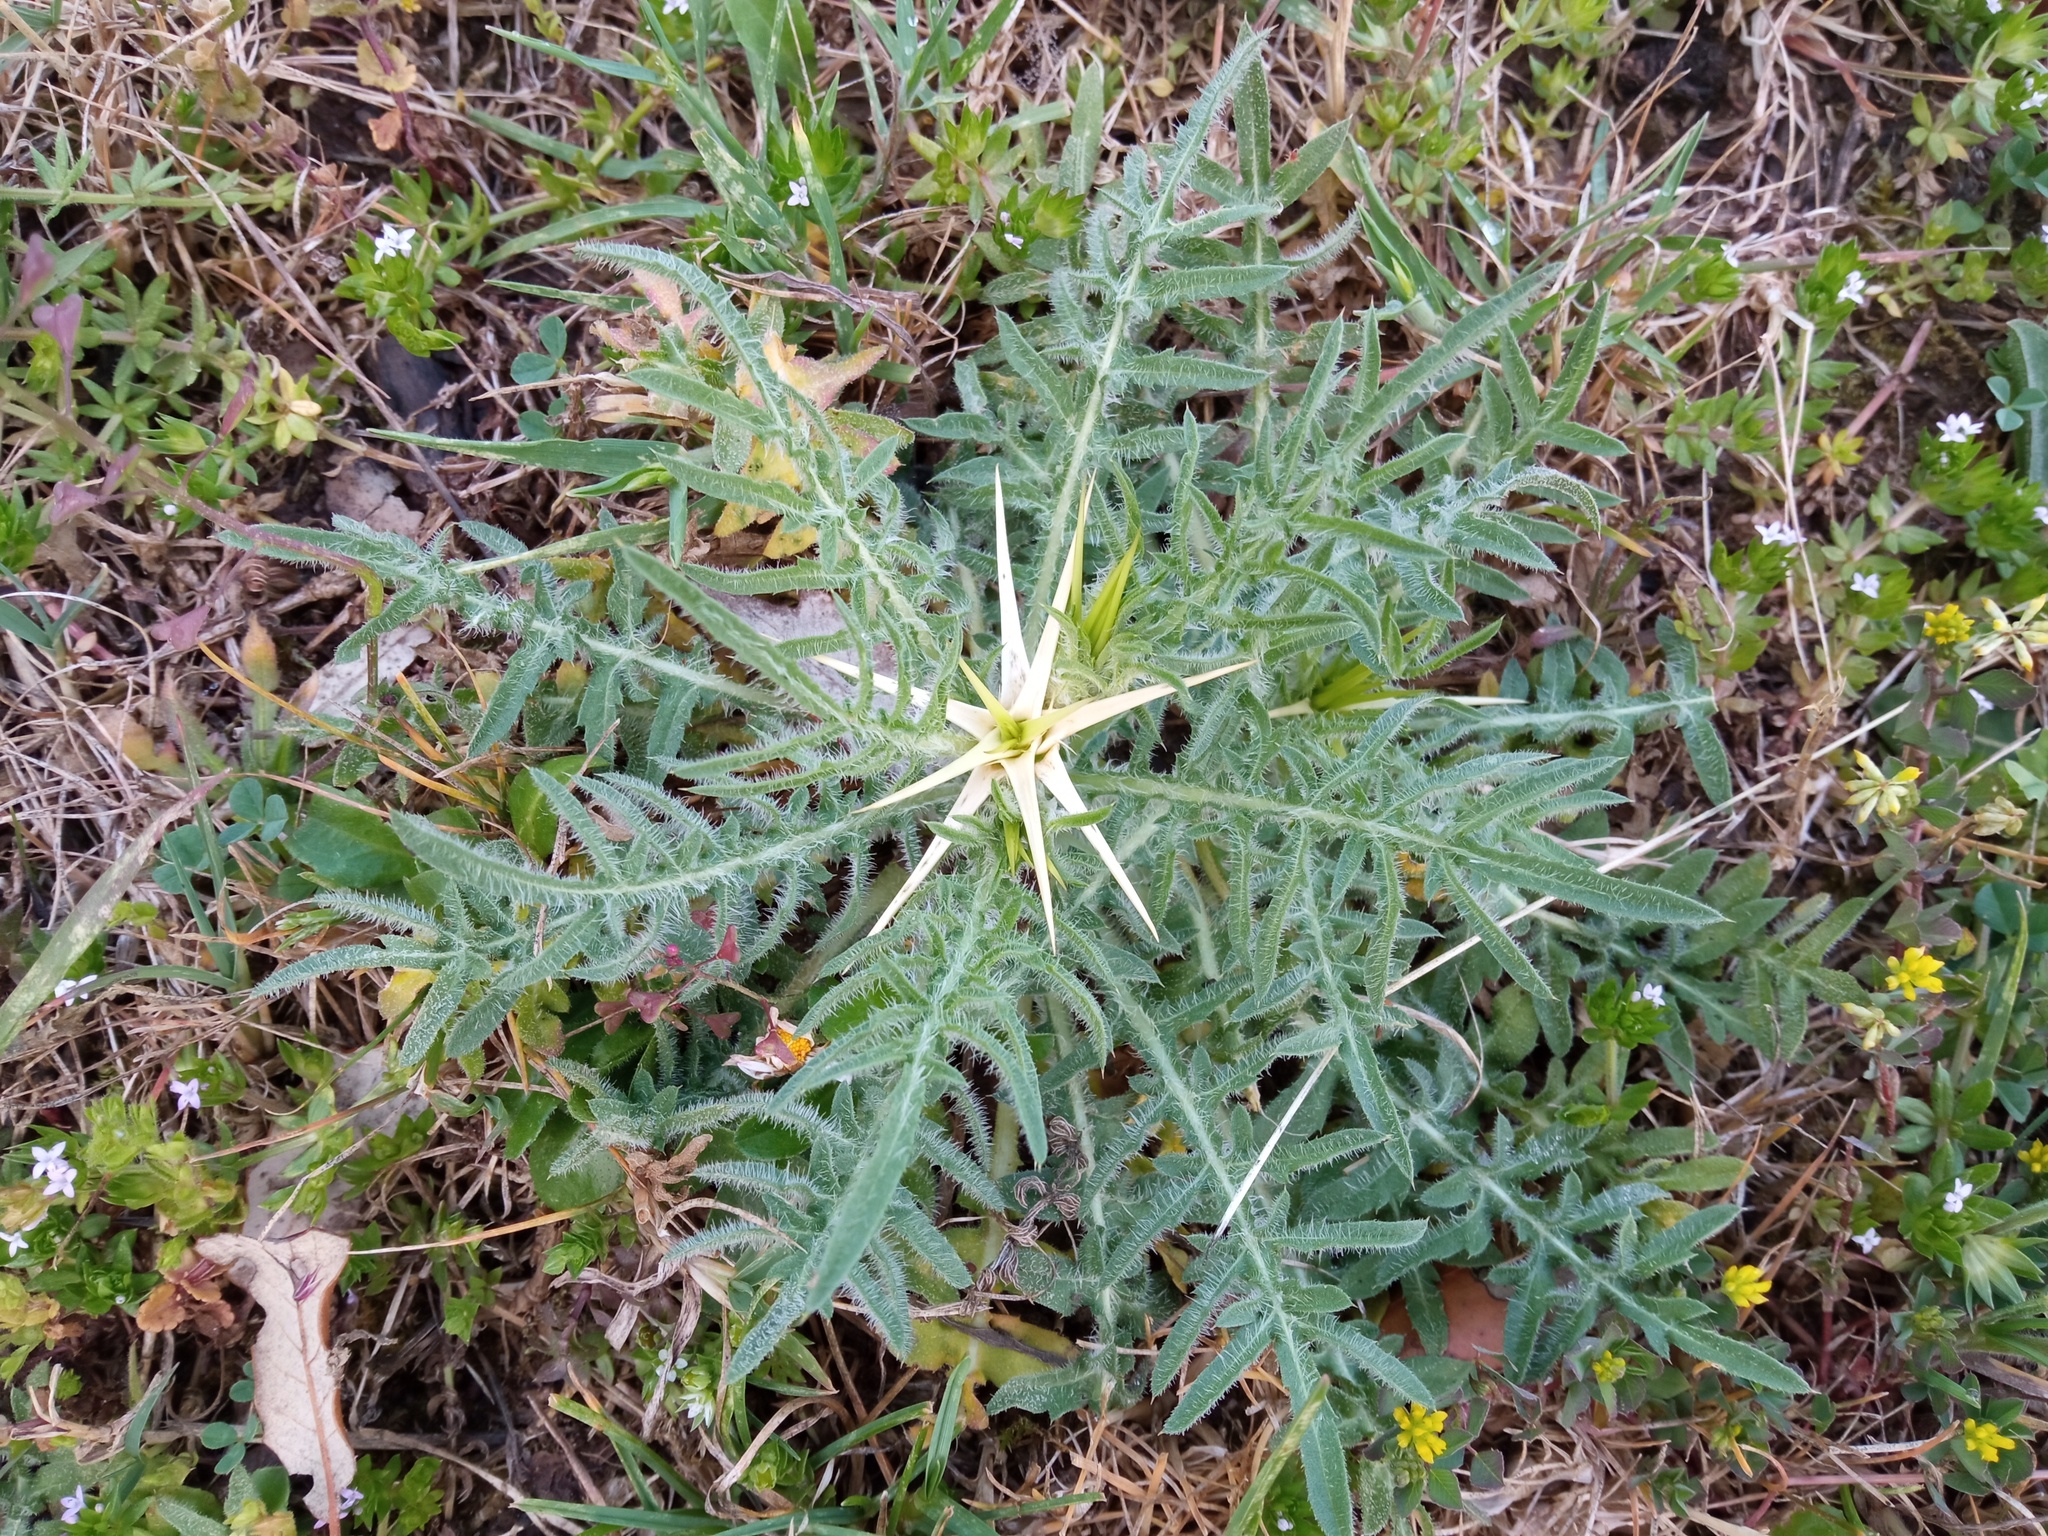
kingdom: Plantae
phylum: Tracheophyta
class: Magnoliopsida
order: Asterales
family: Asteraceae
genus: Centaurea
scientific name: Centaurea calcitrapa
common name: Red star-thistle
